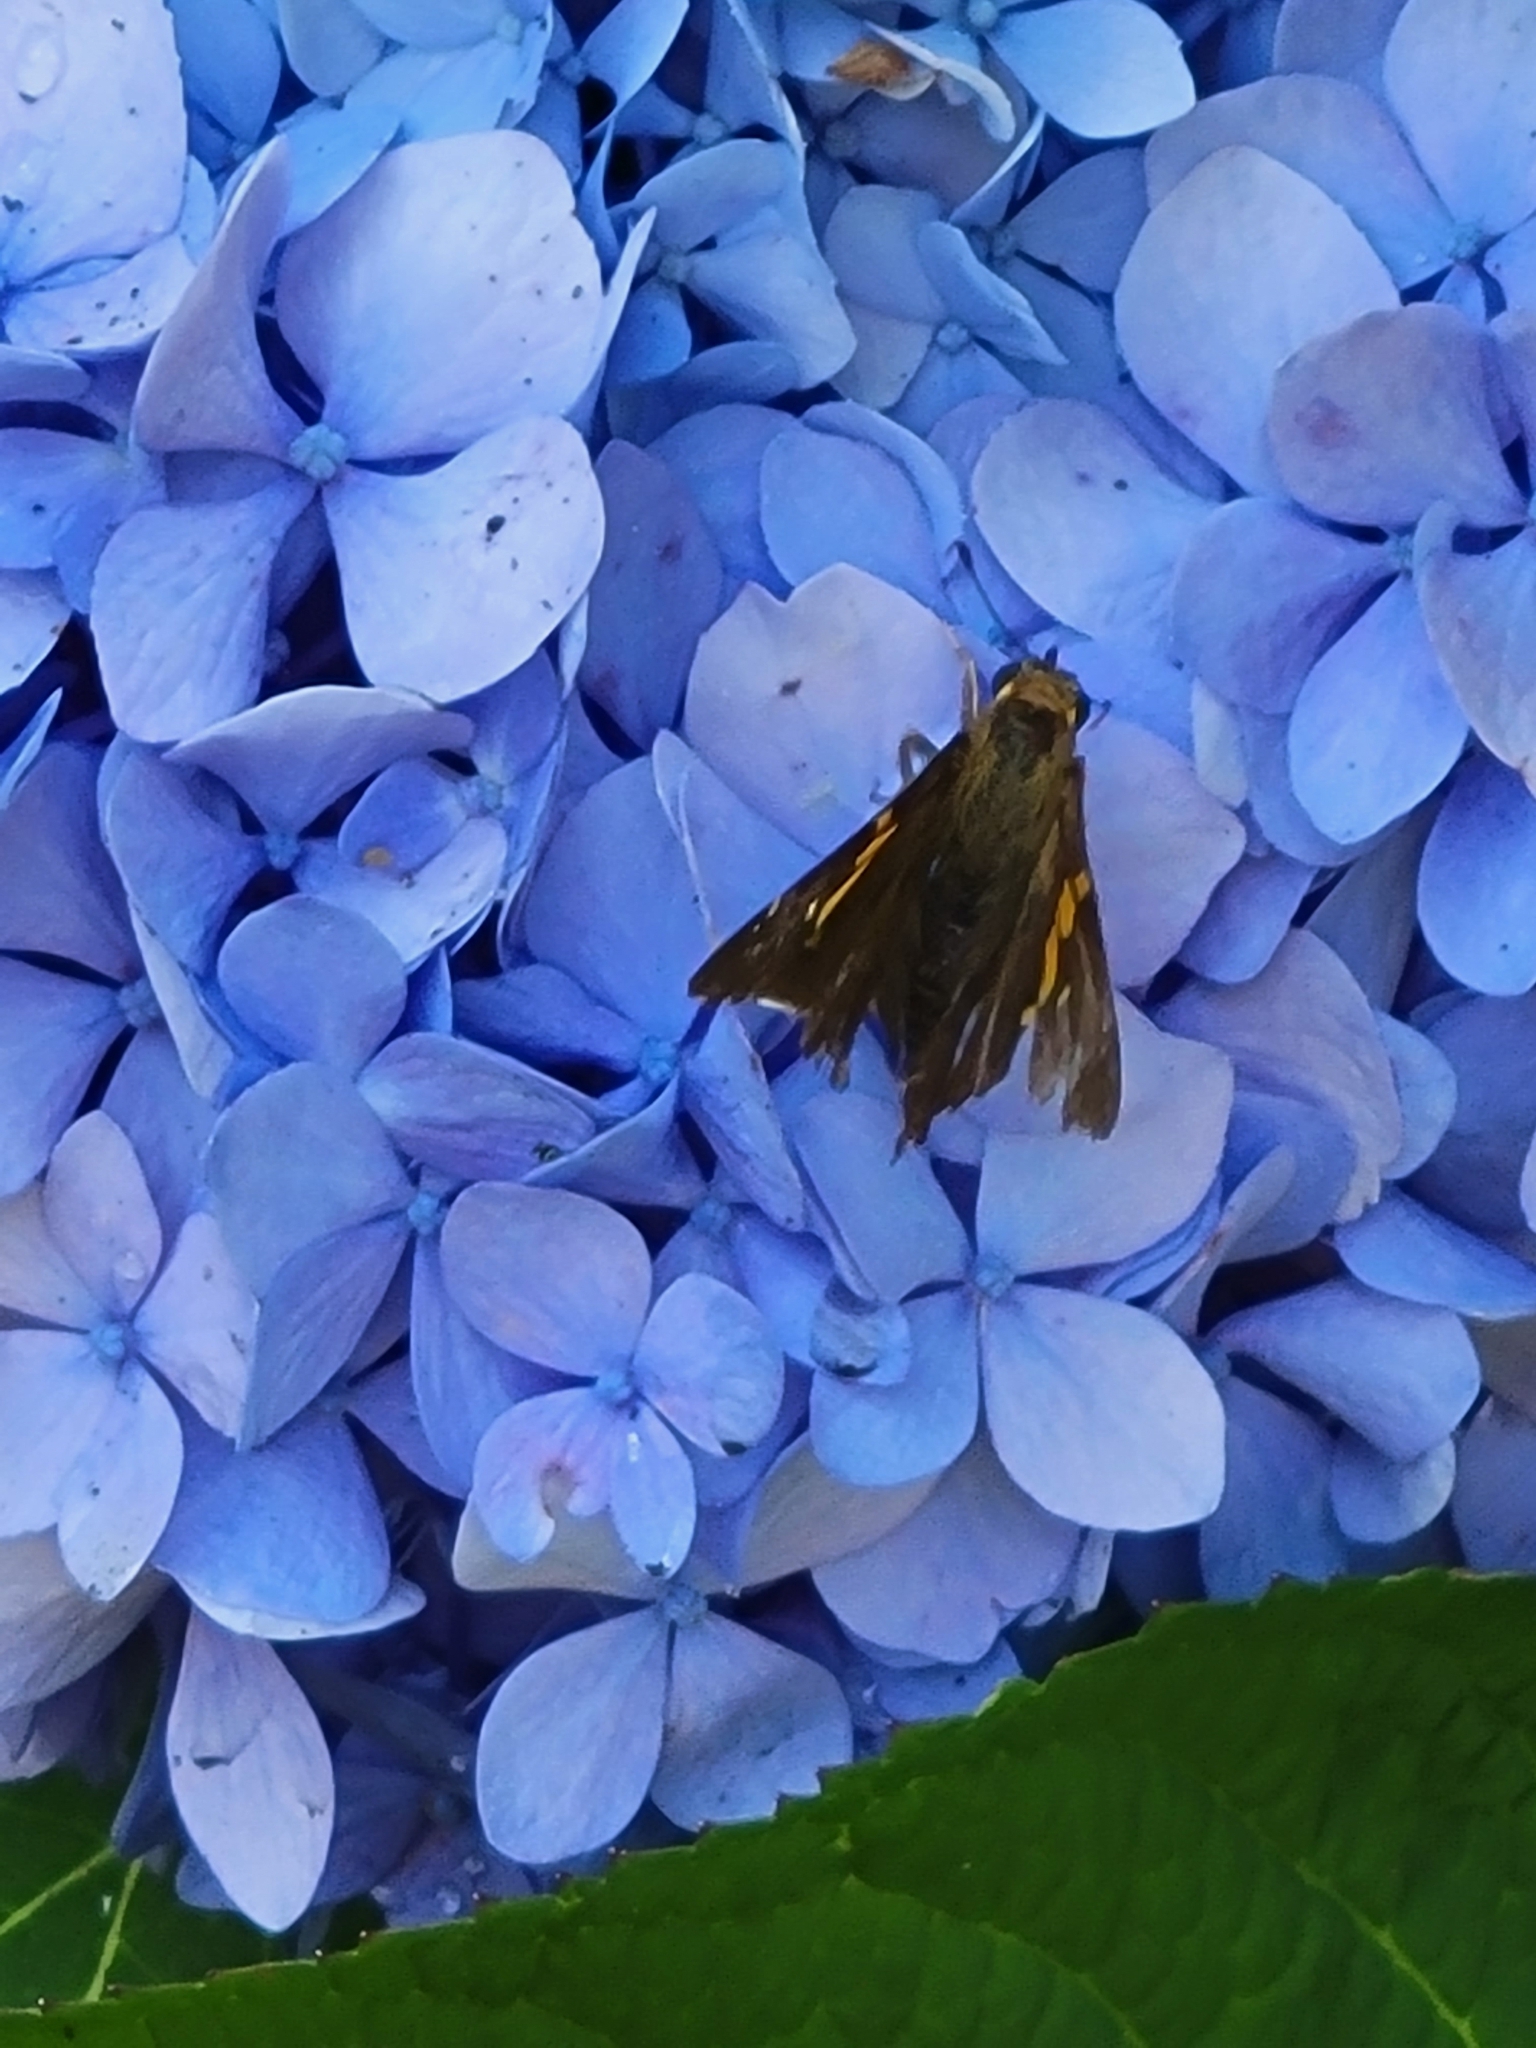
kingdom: Animalia
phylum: Arthropoda
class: Insecta
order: Lepidoptera
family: Hesperiidae
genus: Epargyreus
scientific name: Epargyreus clarus
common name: Silver-spotted skipper
